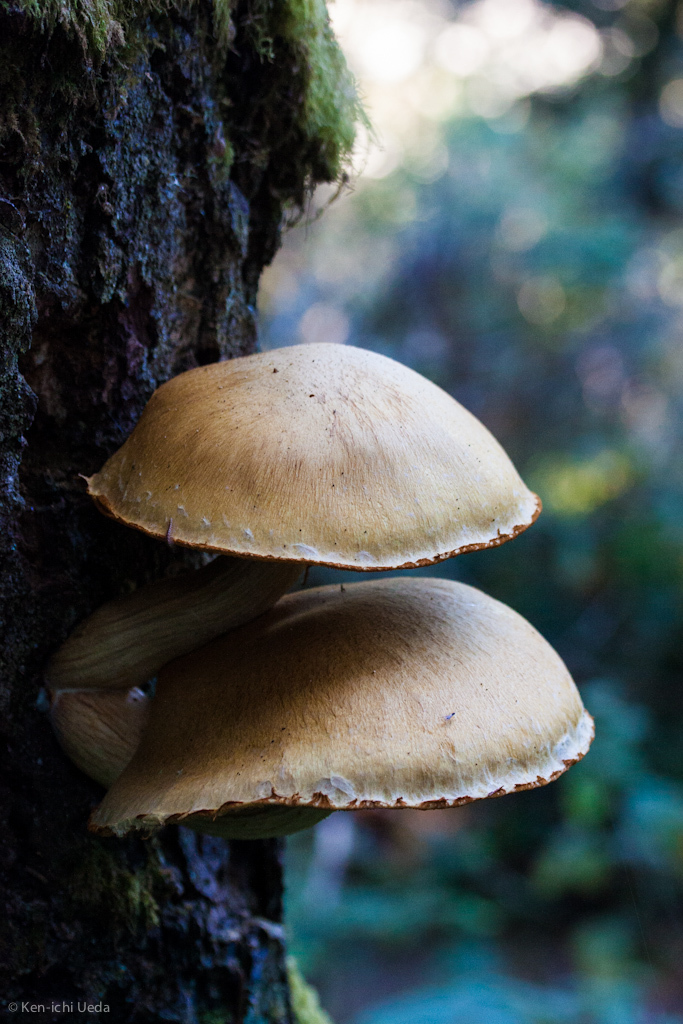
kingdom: Fungi
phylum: Basidiomycota
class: Agaricomycetes
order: Agaricales
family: Hymenogastraceae
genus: Gymnopilus
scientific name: Gymnopilus ventricosus
